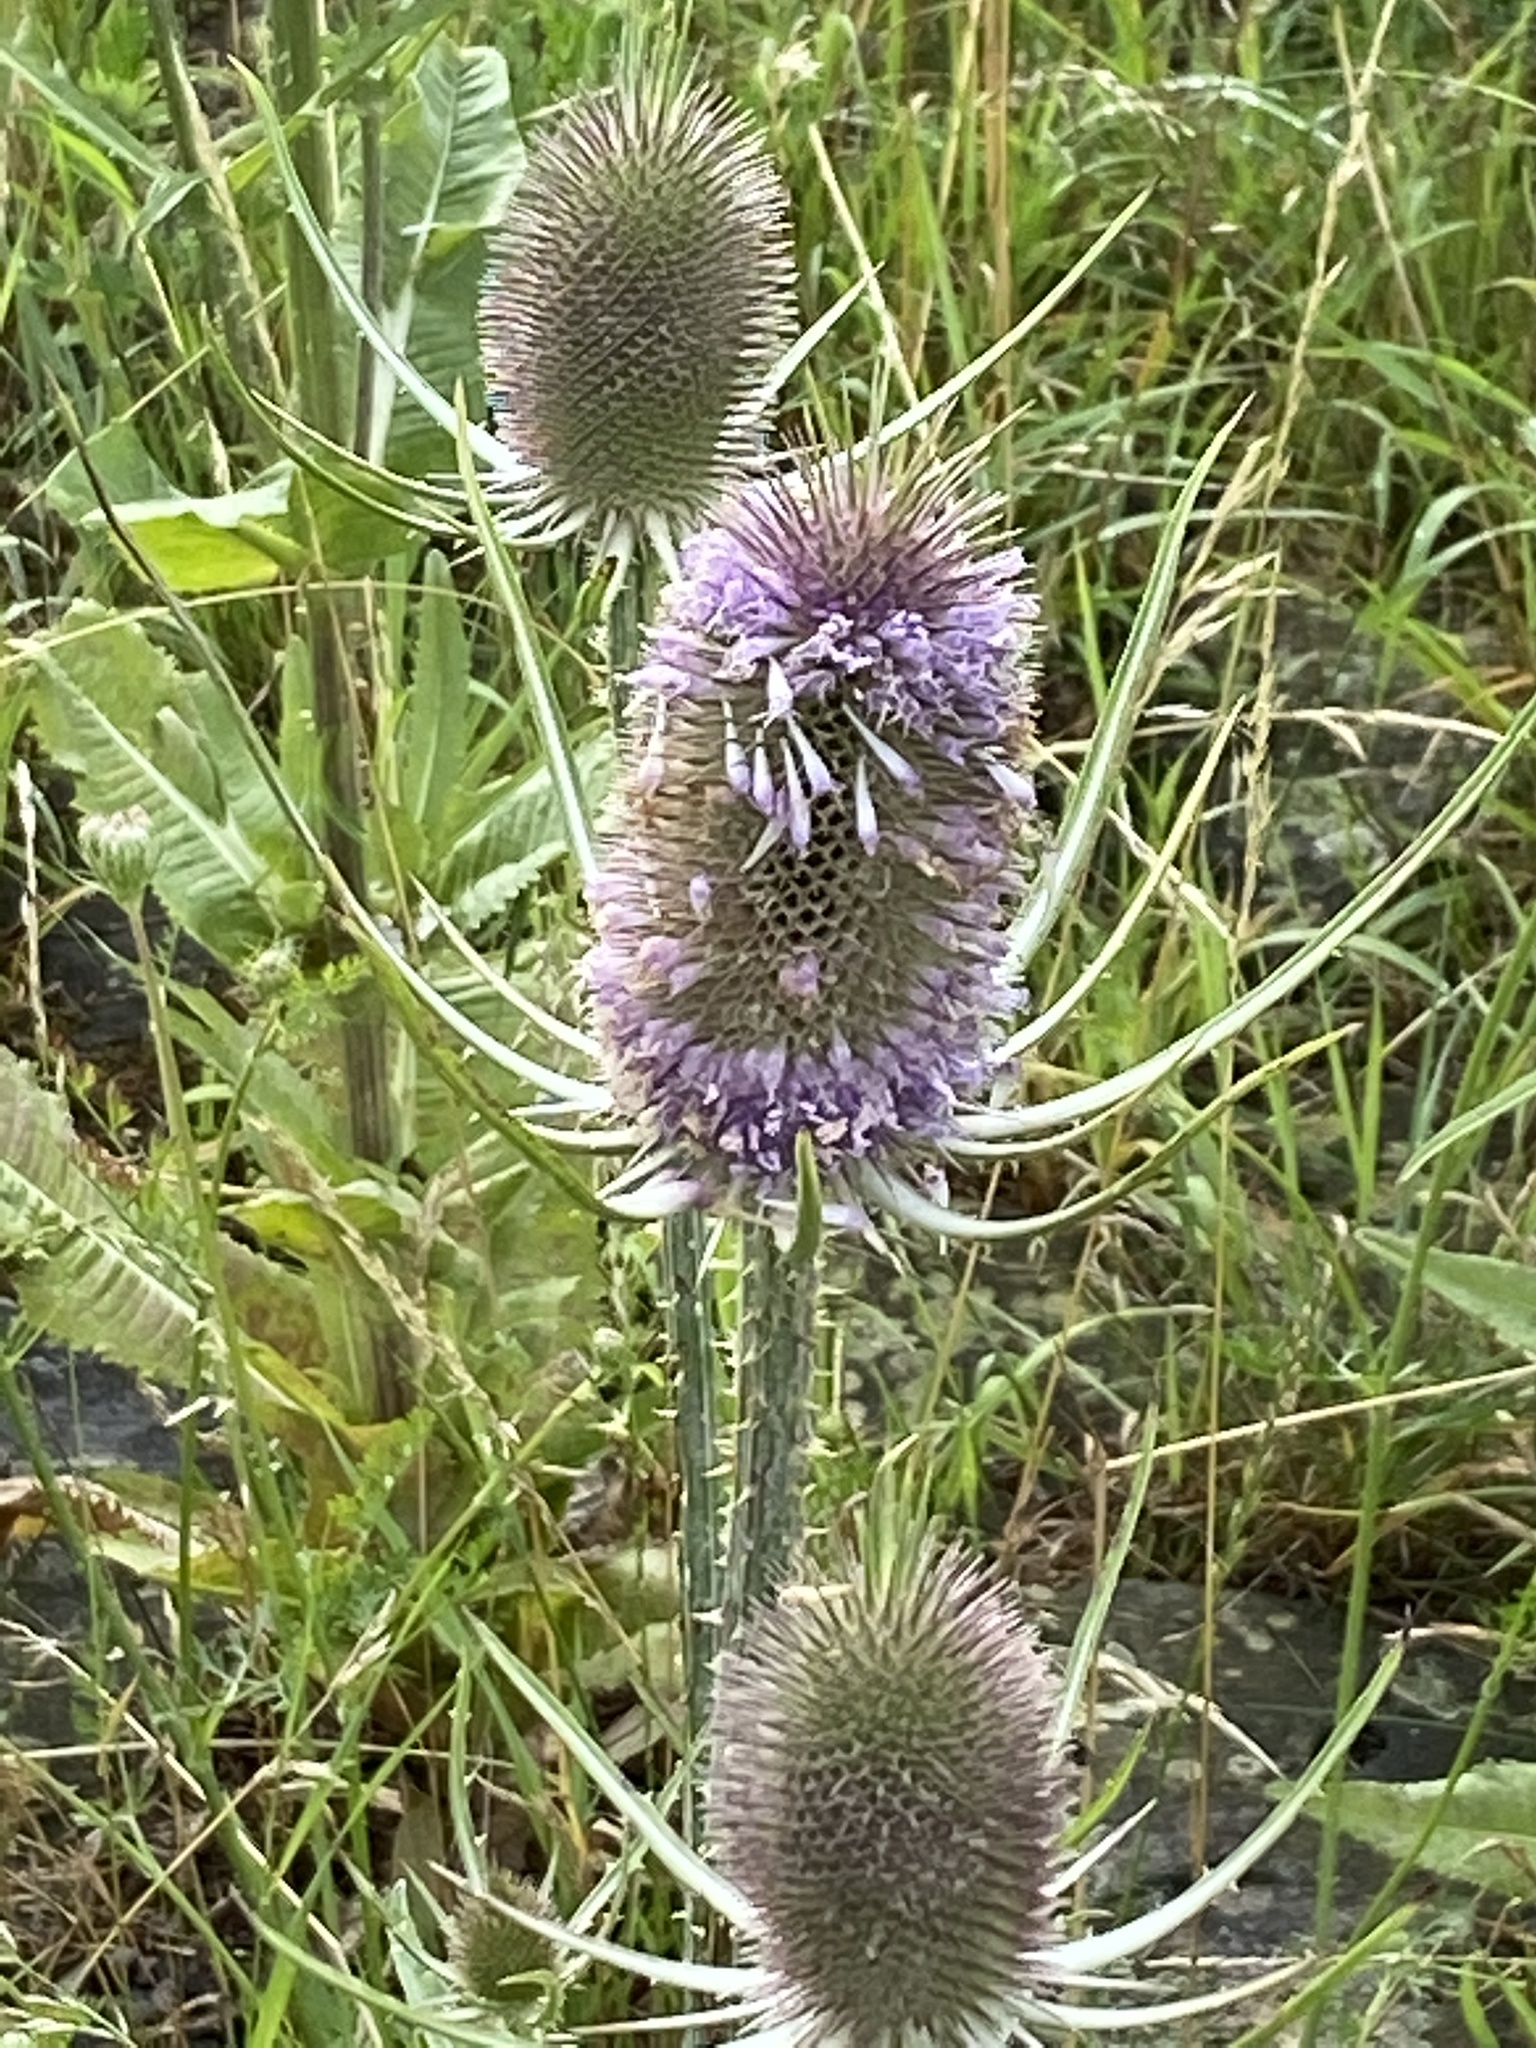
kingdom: Plantae
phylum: Tracheophyta
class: Magnoliopsida
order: Dipsacales
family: Caprifoliaceae
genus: Dipsacus
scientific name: Dipsacus fullonum
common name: Teasel
